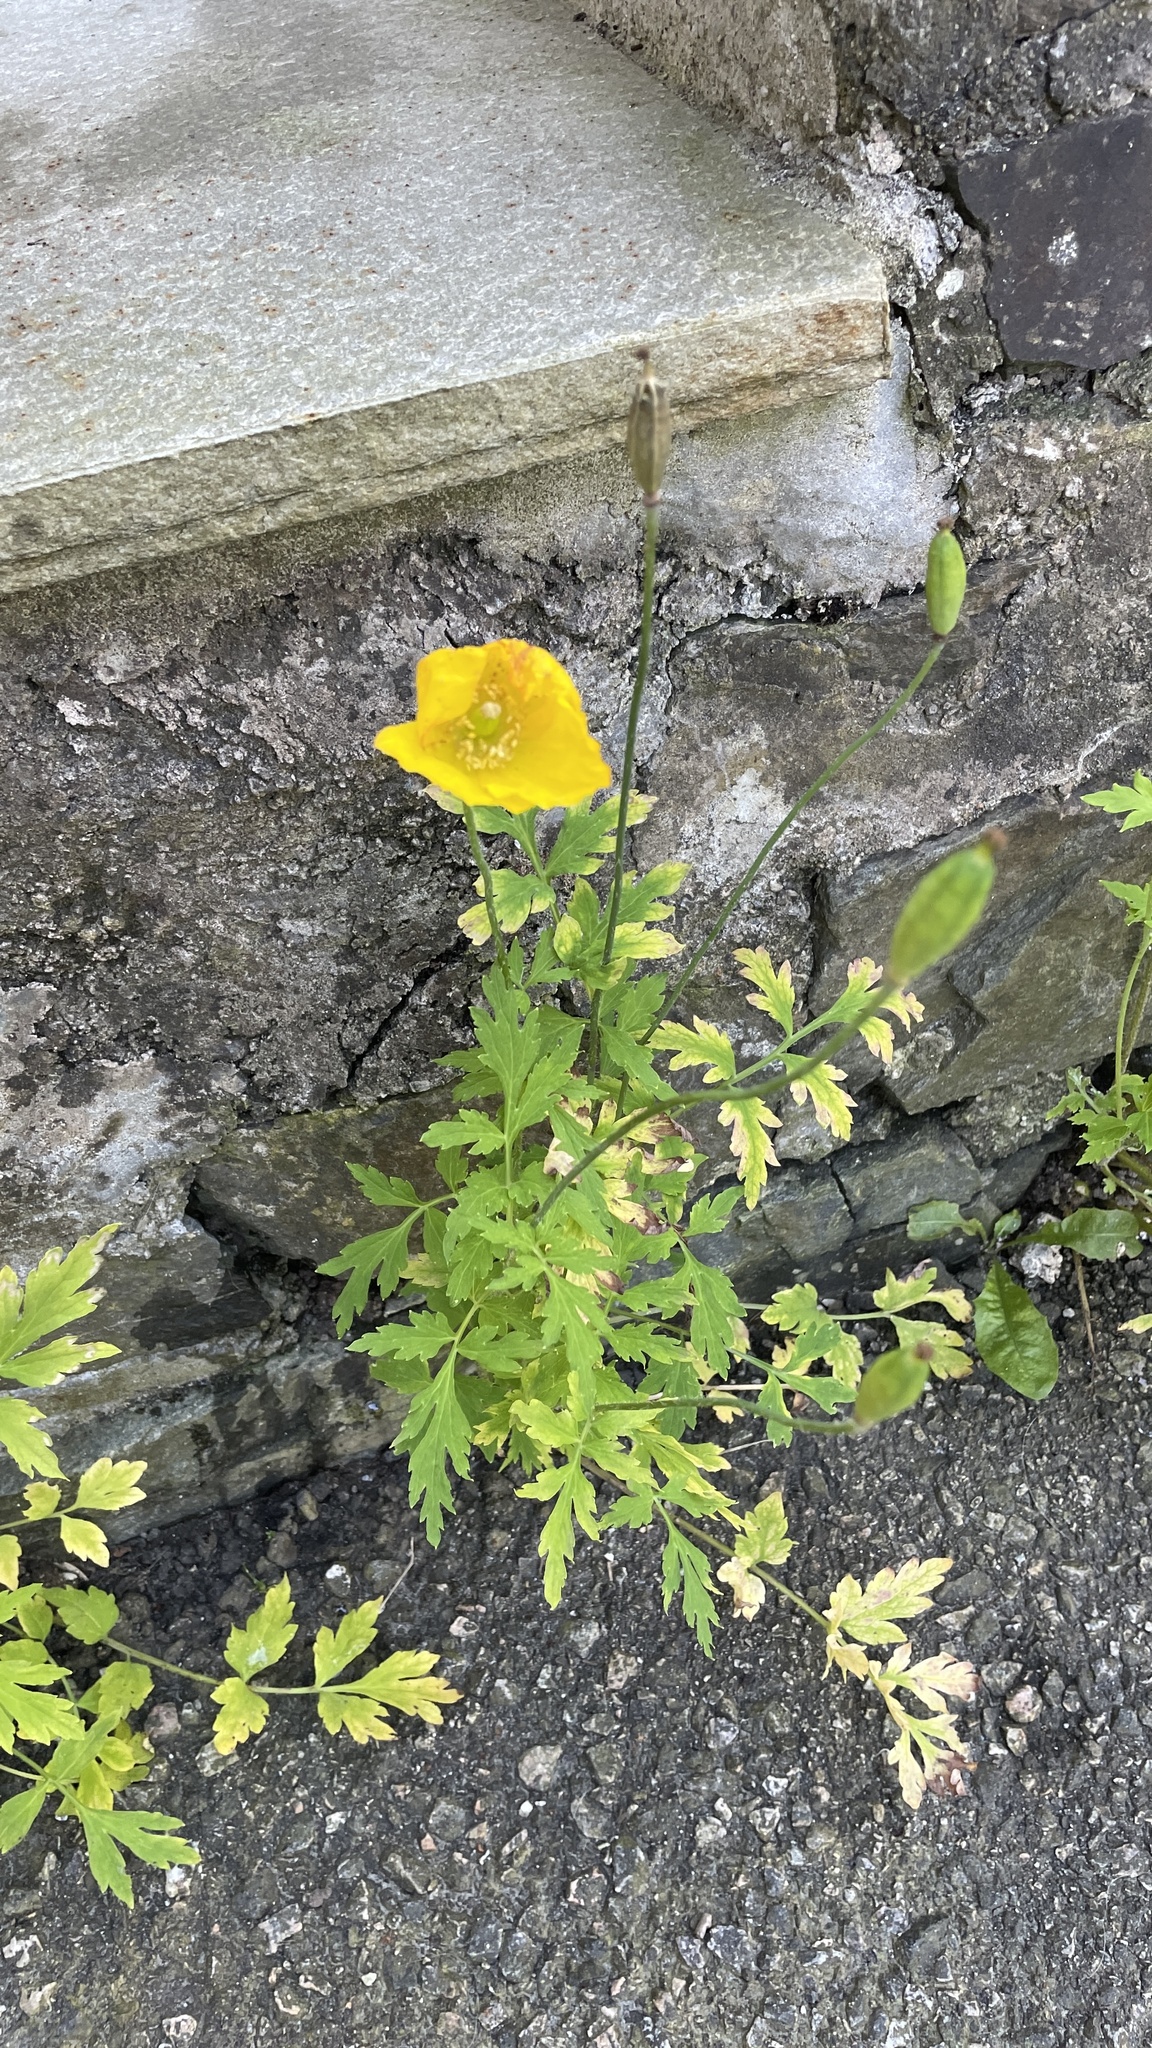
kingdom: Plantae
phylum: Tracheophyta
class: Magnoliopsida
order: Ranunculales
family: Papaveraceae
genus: Papaver
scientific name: Papaver cambricum
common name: Poppy
